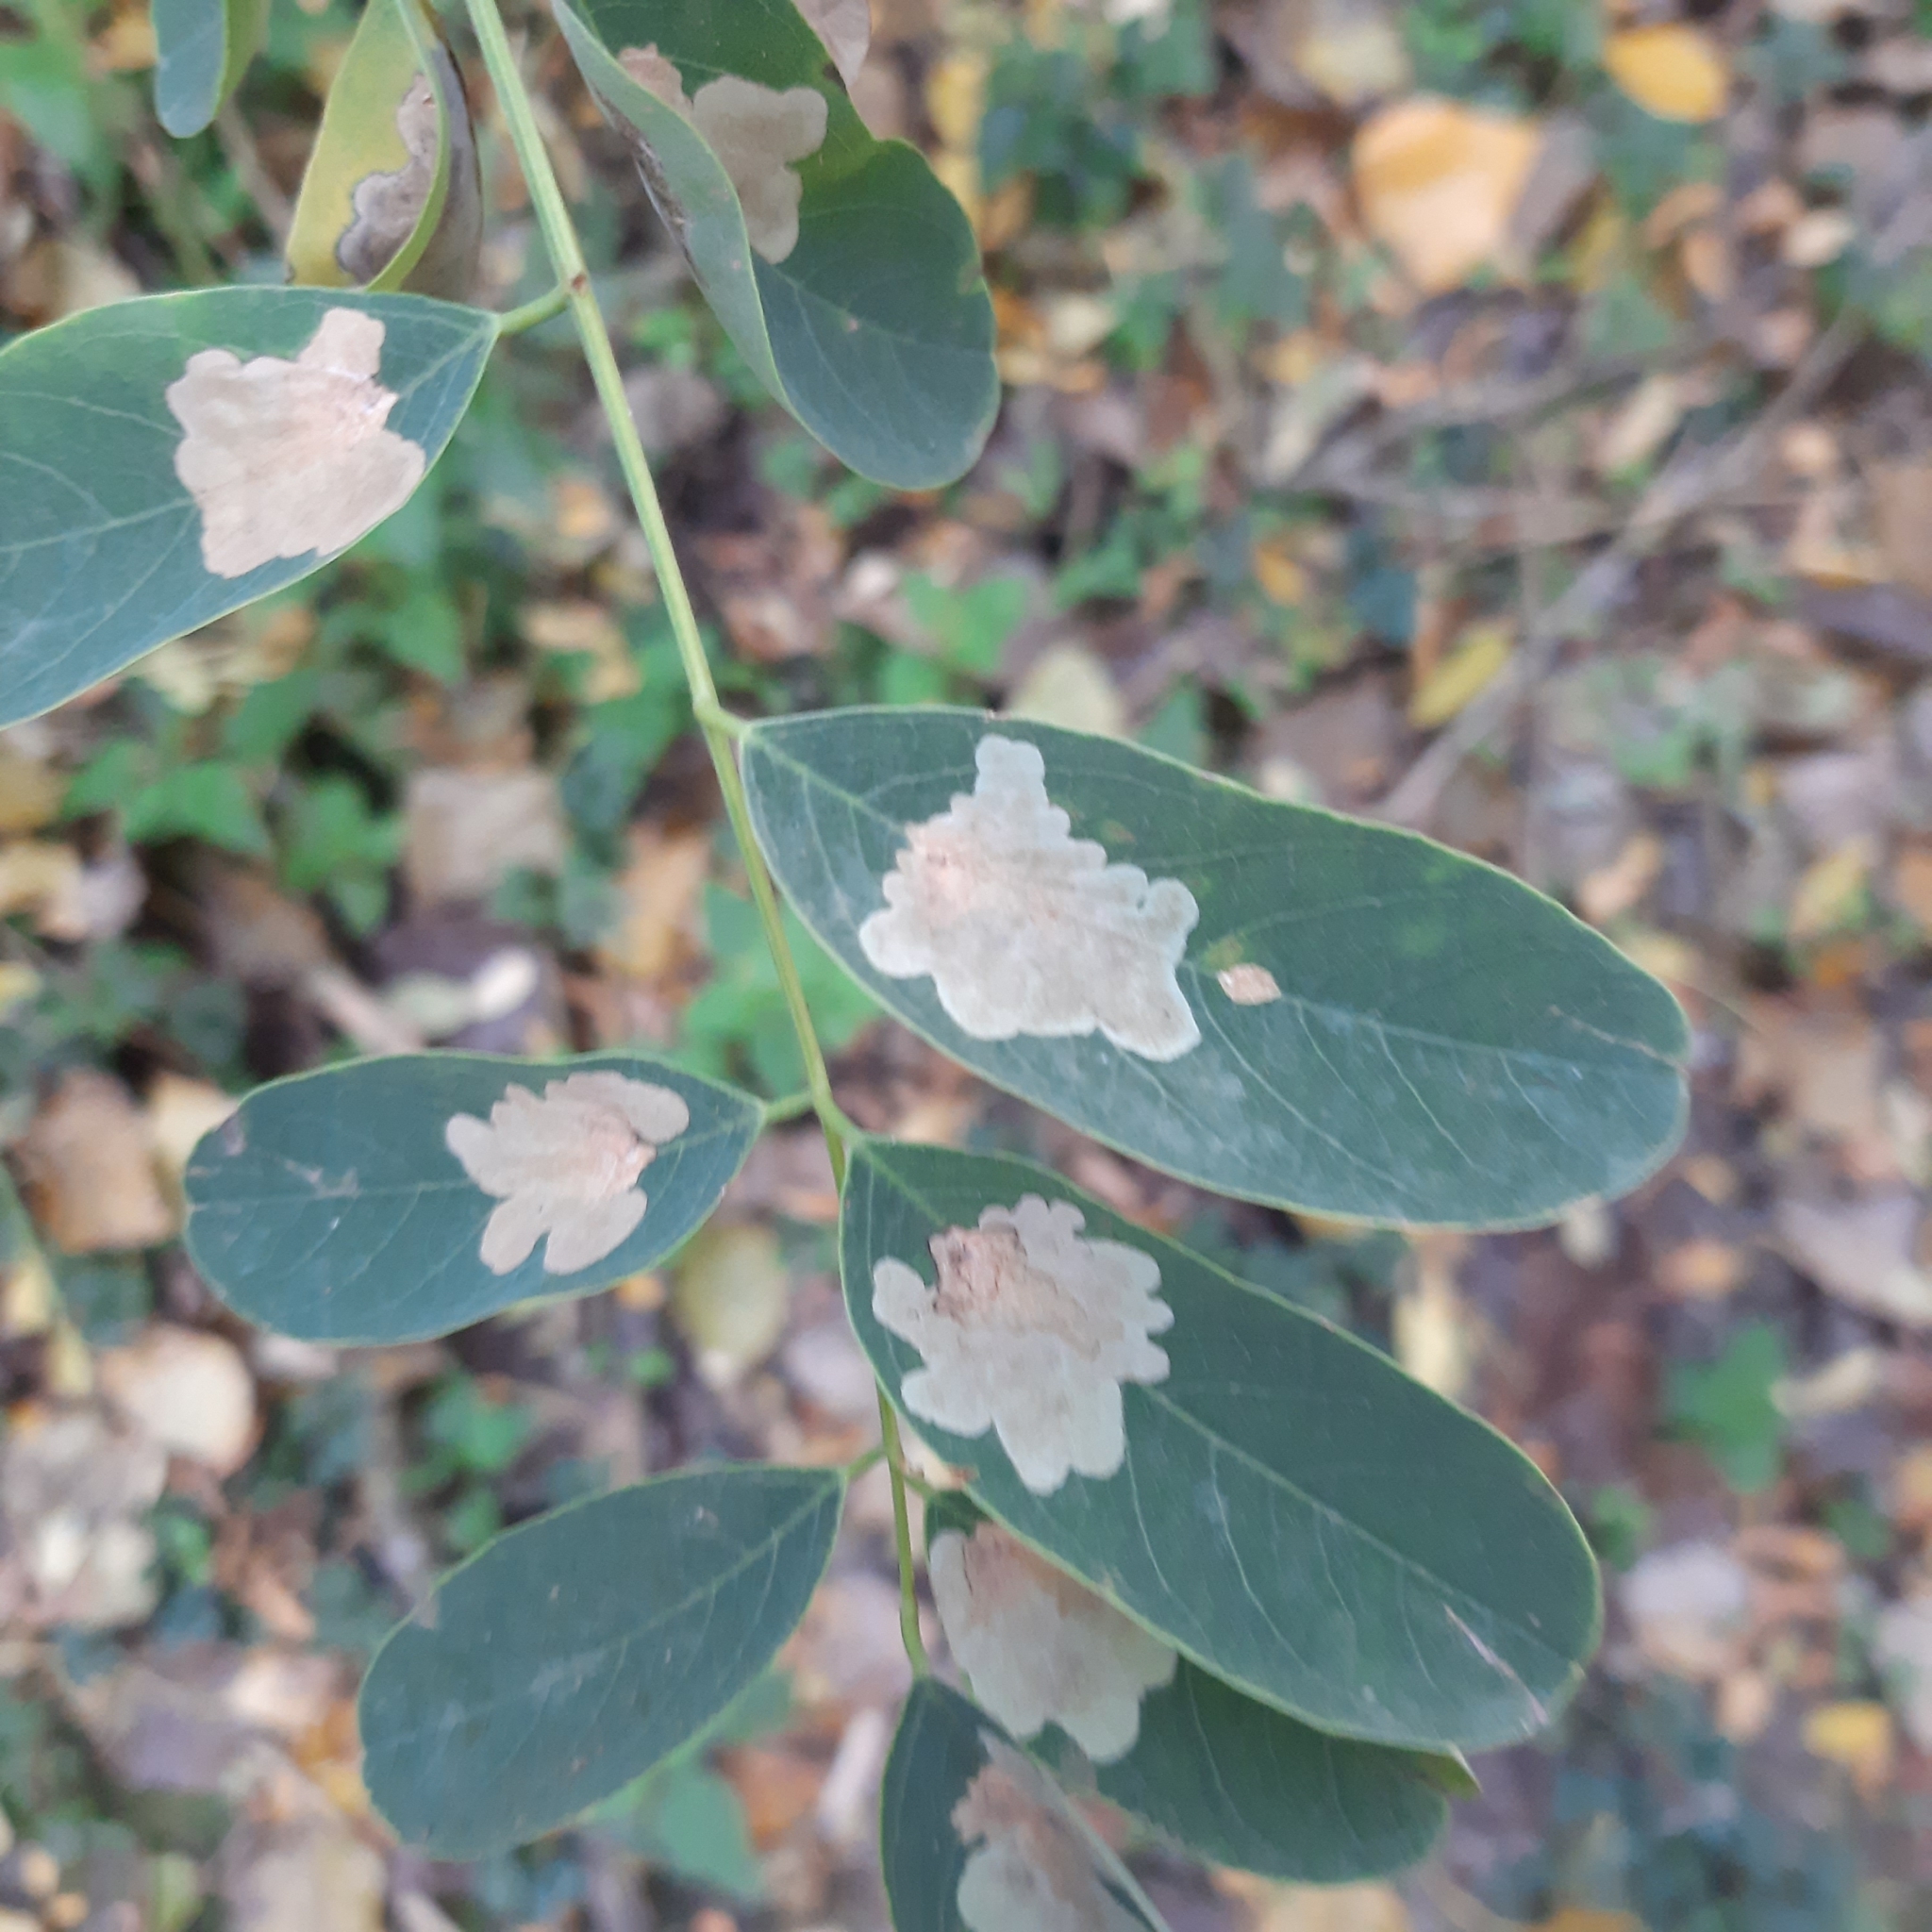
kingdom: Animalia
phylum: Arthropoda
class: Insecta
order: Lepidoptera
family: Gracillariidae
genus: Parectopa
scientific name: Parectopa robiniella
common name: Locust digitate leafminer
